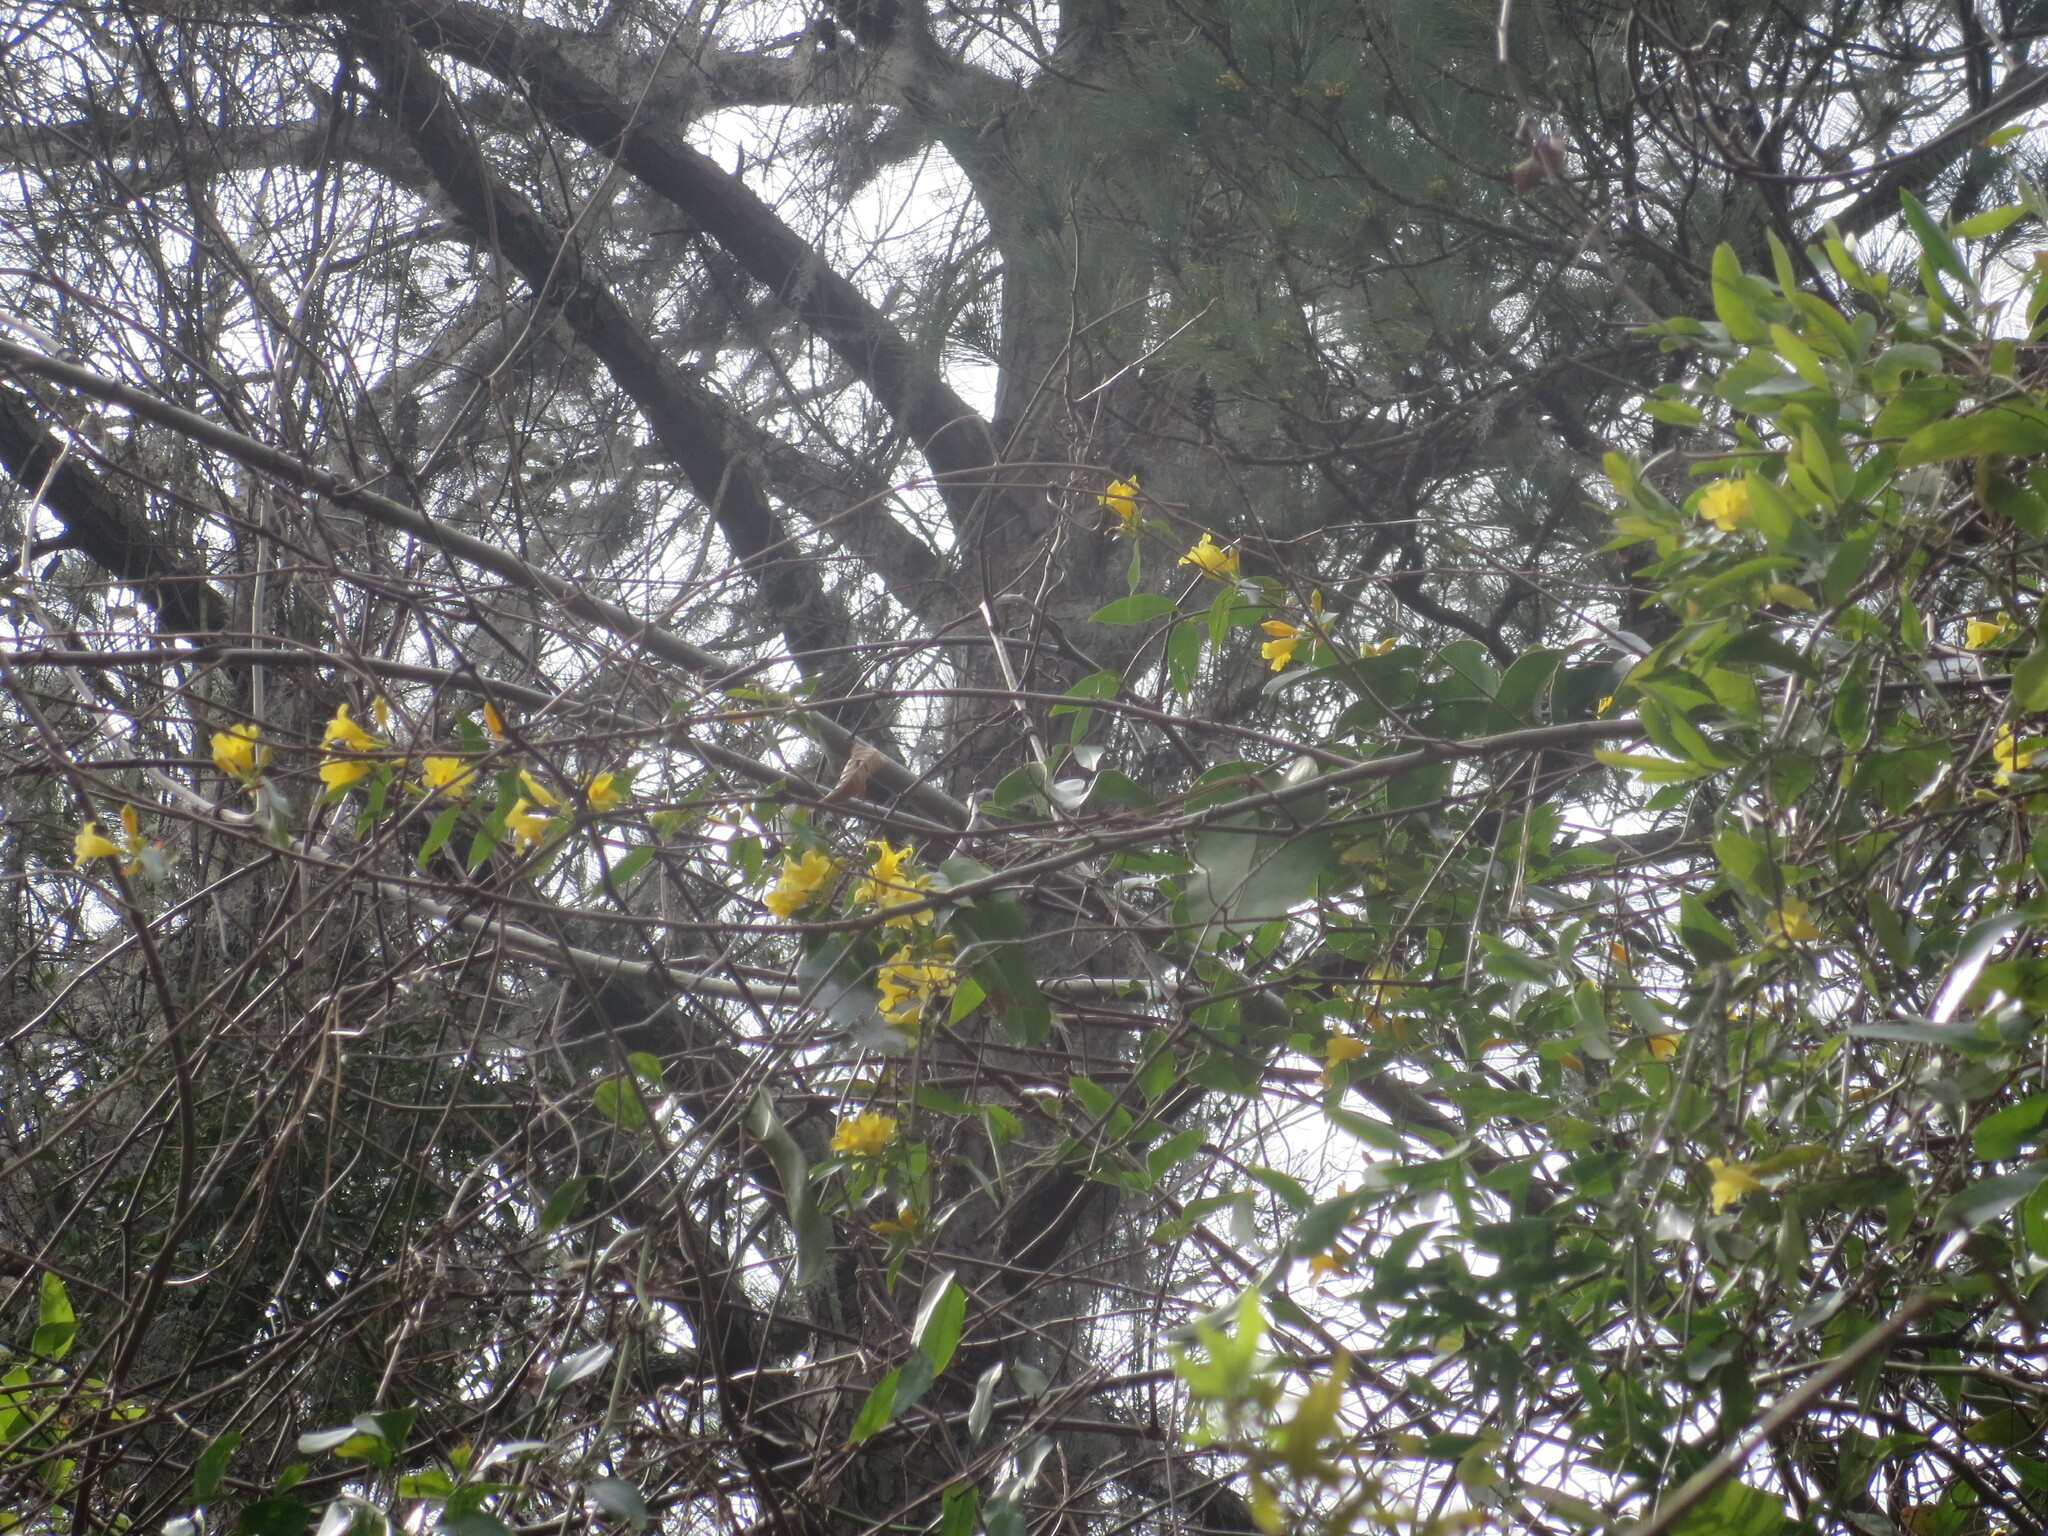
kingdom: Plantae
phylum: Tracheophyta
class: Magnoliopsida
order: Gentianales
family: Gelsemiaceae
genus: Gelsemium
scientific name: Gelsemium sempervirens
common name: Carolina-jasmine
